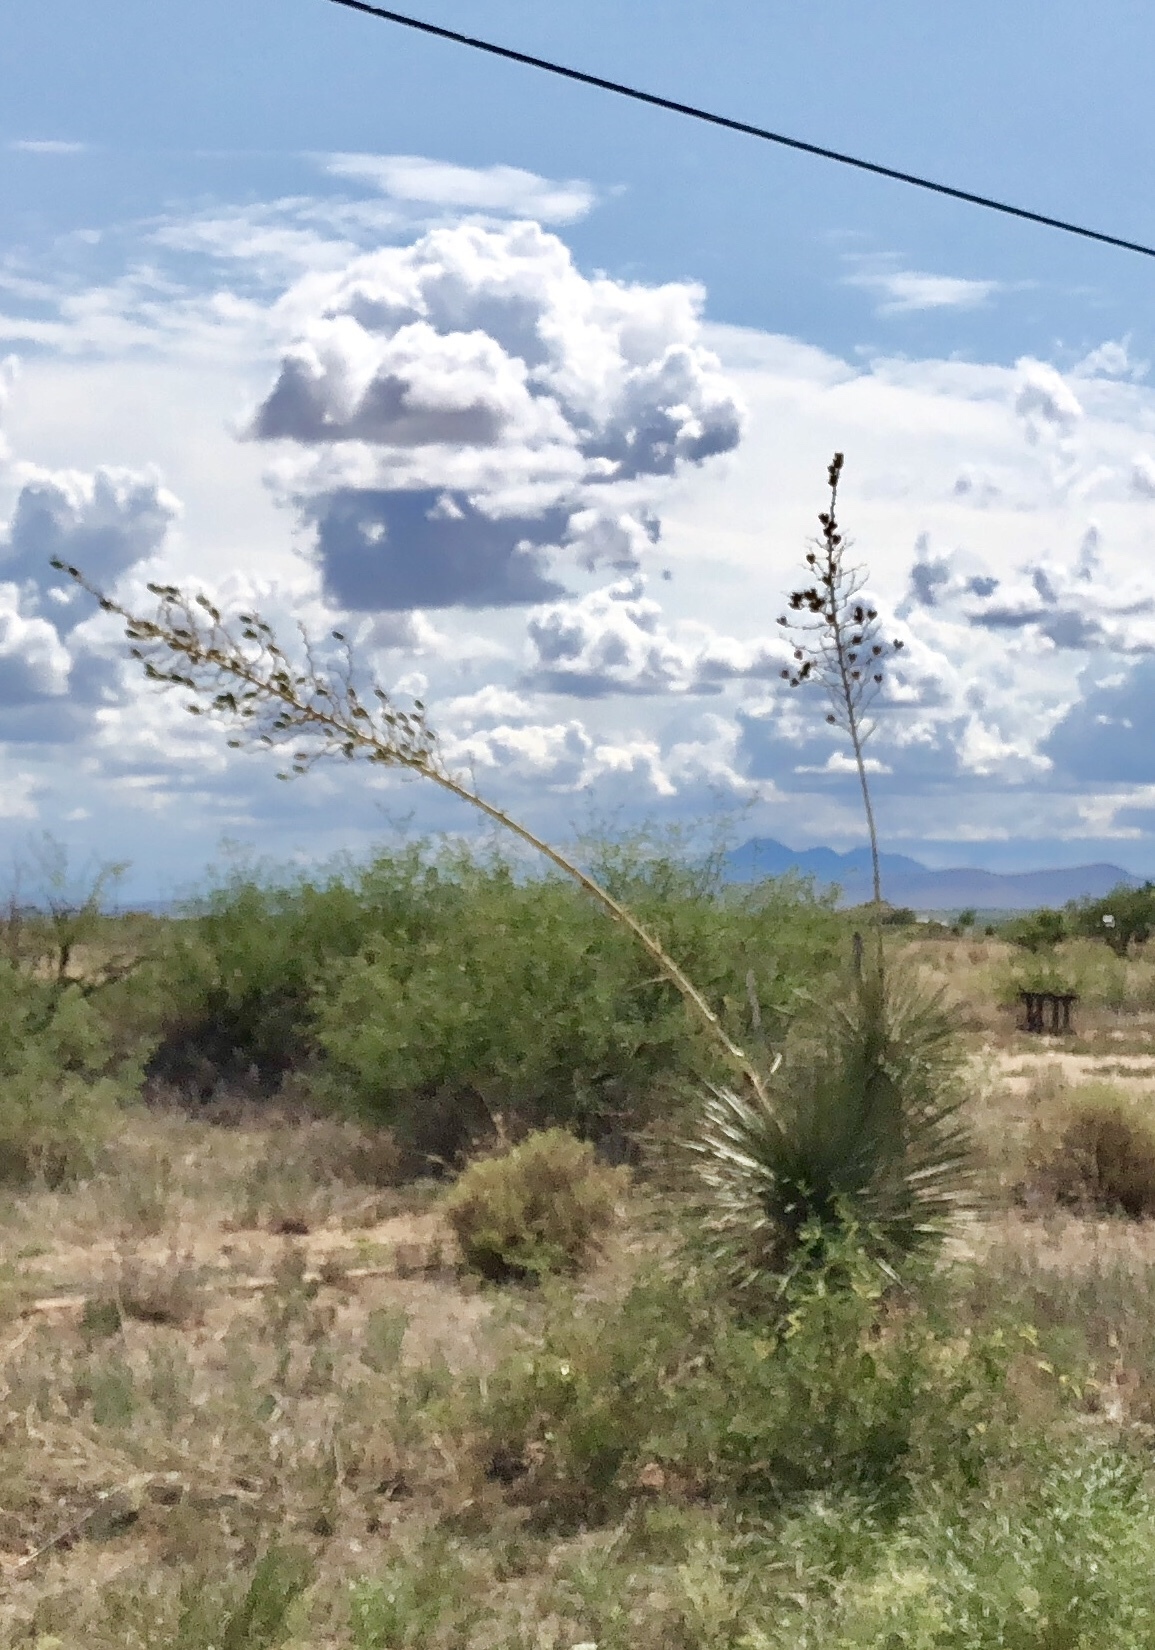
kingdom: Plantae
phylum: Tracheophyta
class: Liliopsida
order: Asparagales
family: Asparagaceae
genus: Yucca
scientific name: Yucca elata
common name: Palmella
